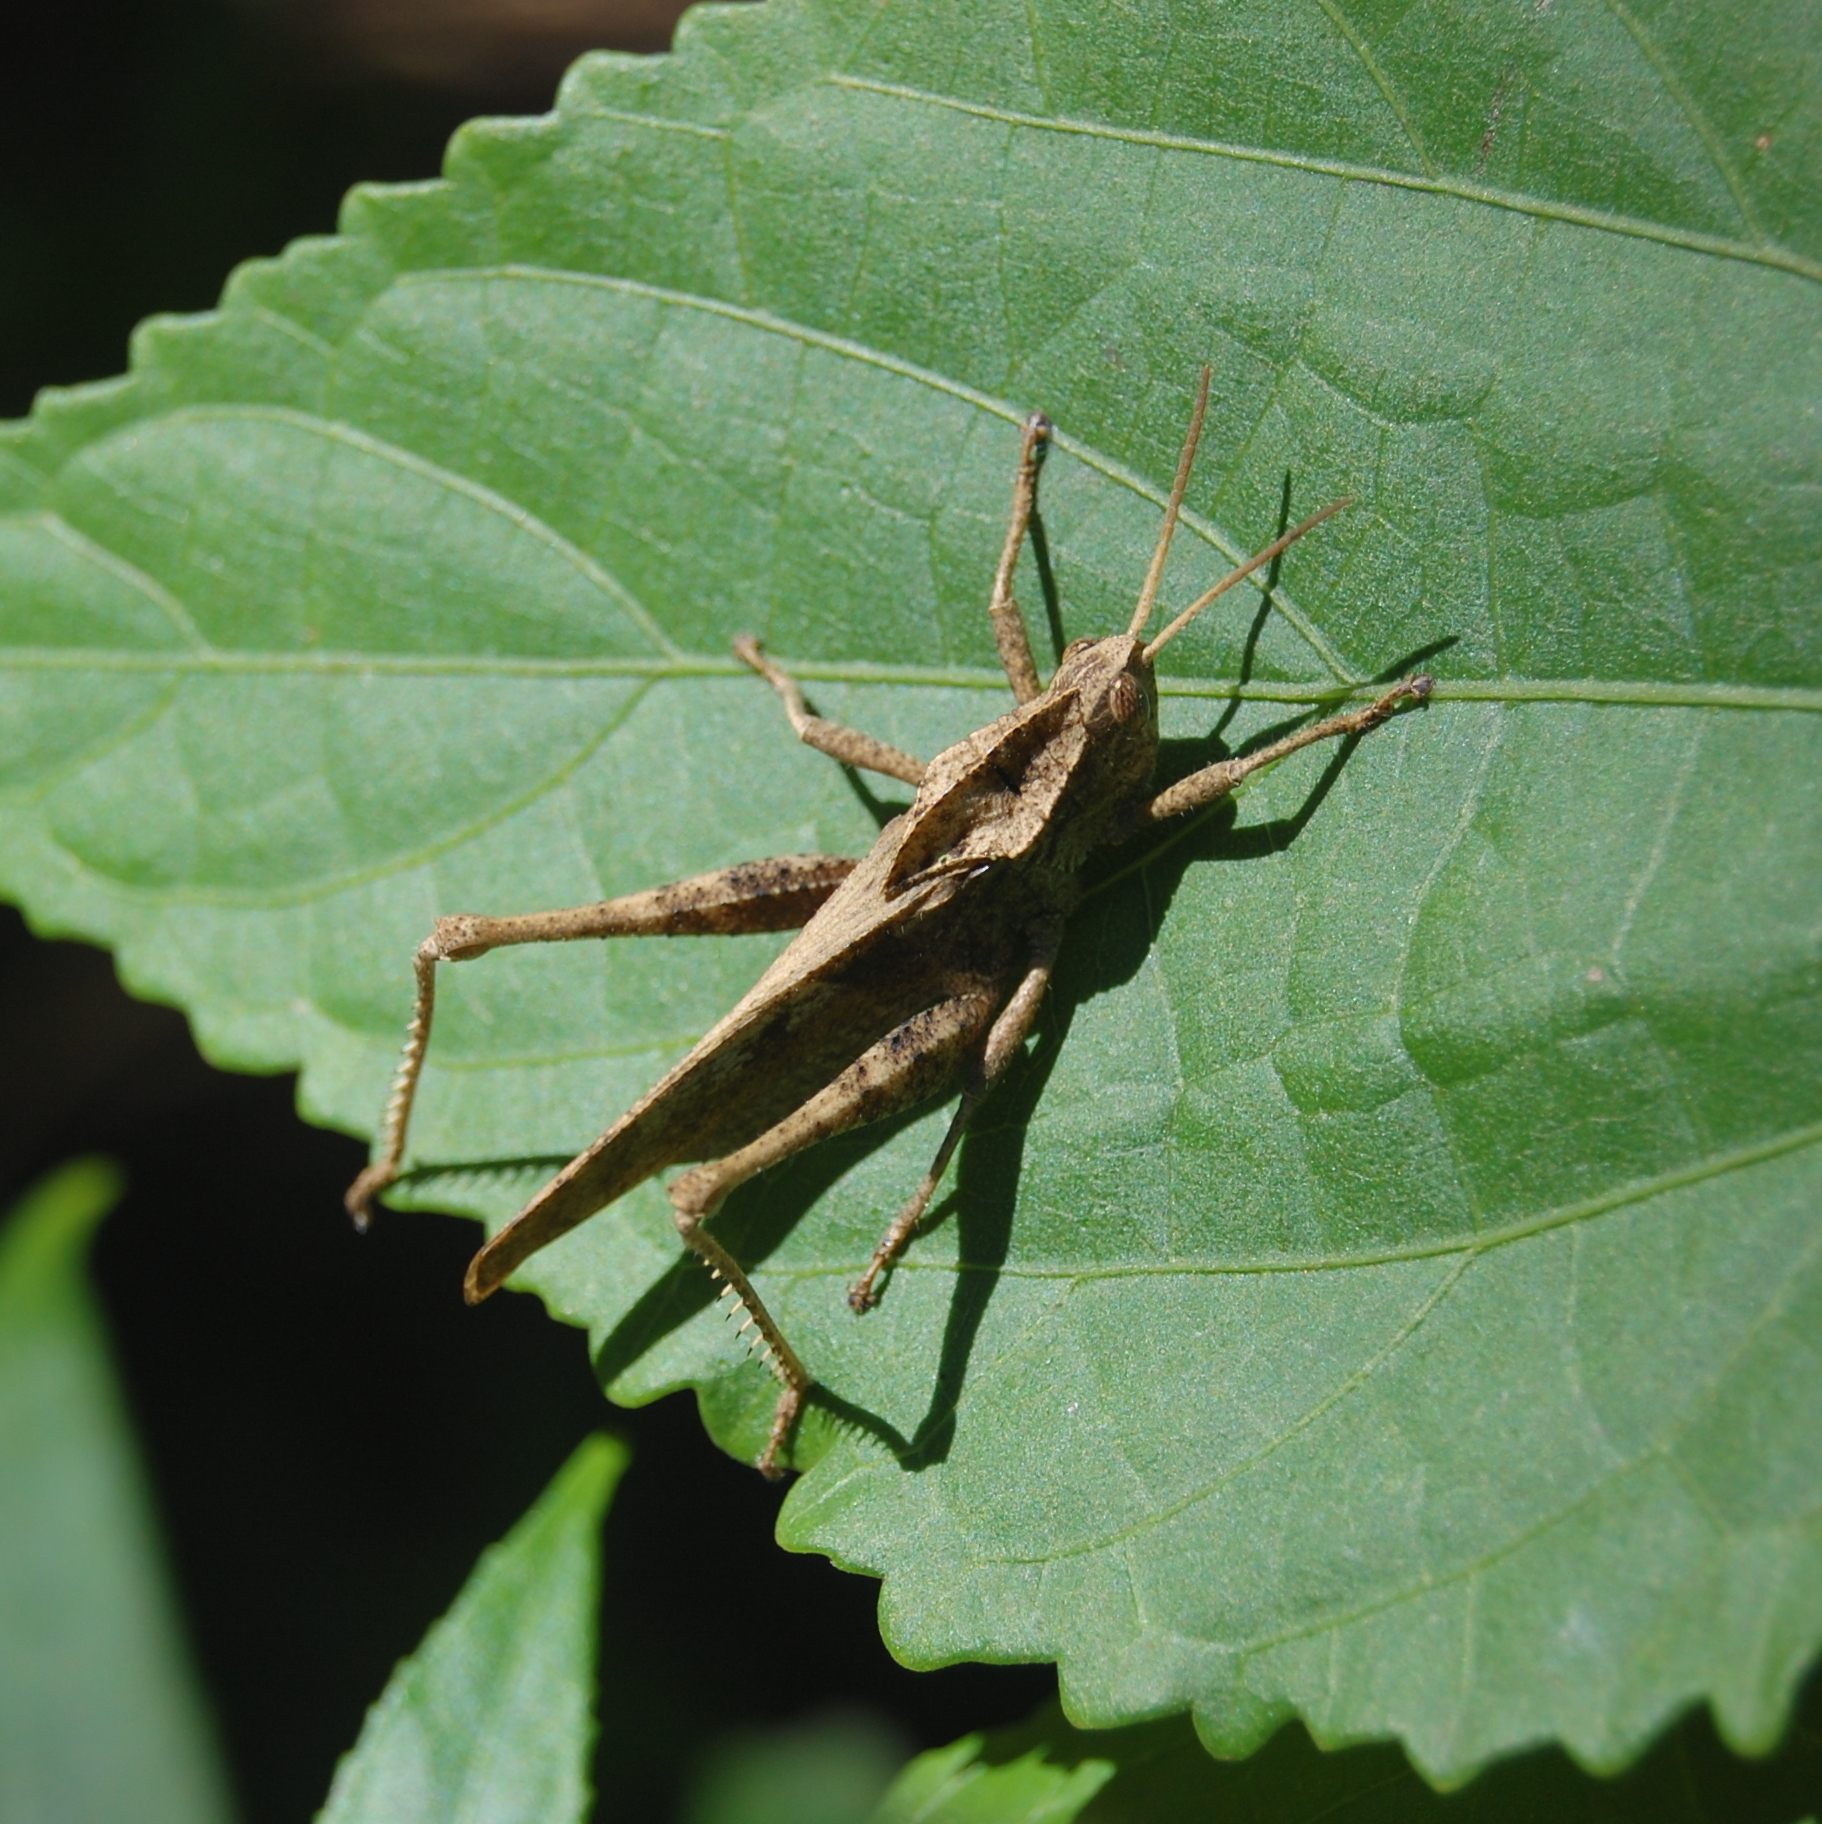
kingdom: Animalia
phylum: Arthropoda
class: Insecta
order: Orthoptera
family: Romaleidae
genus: Xyleus
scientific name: Xyleus discoideus
